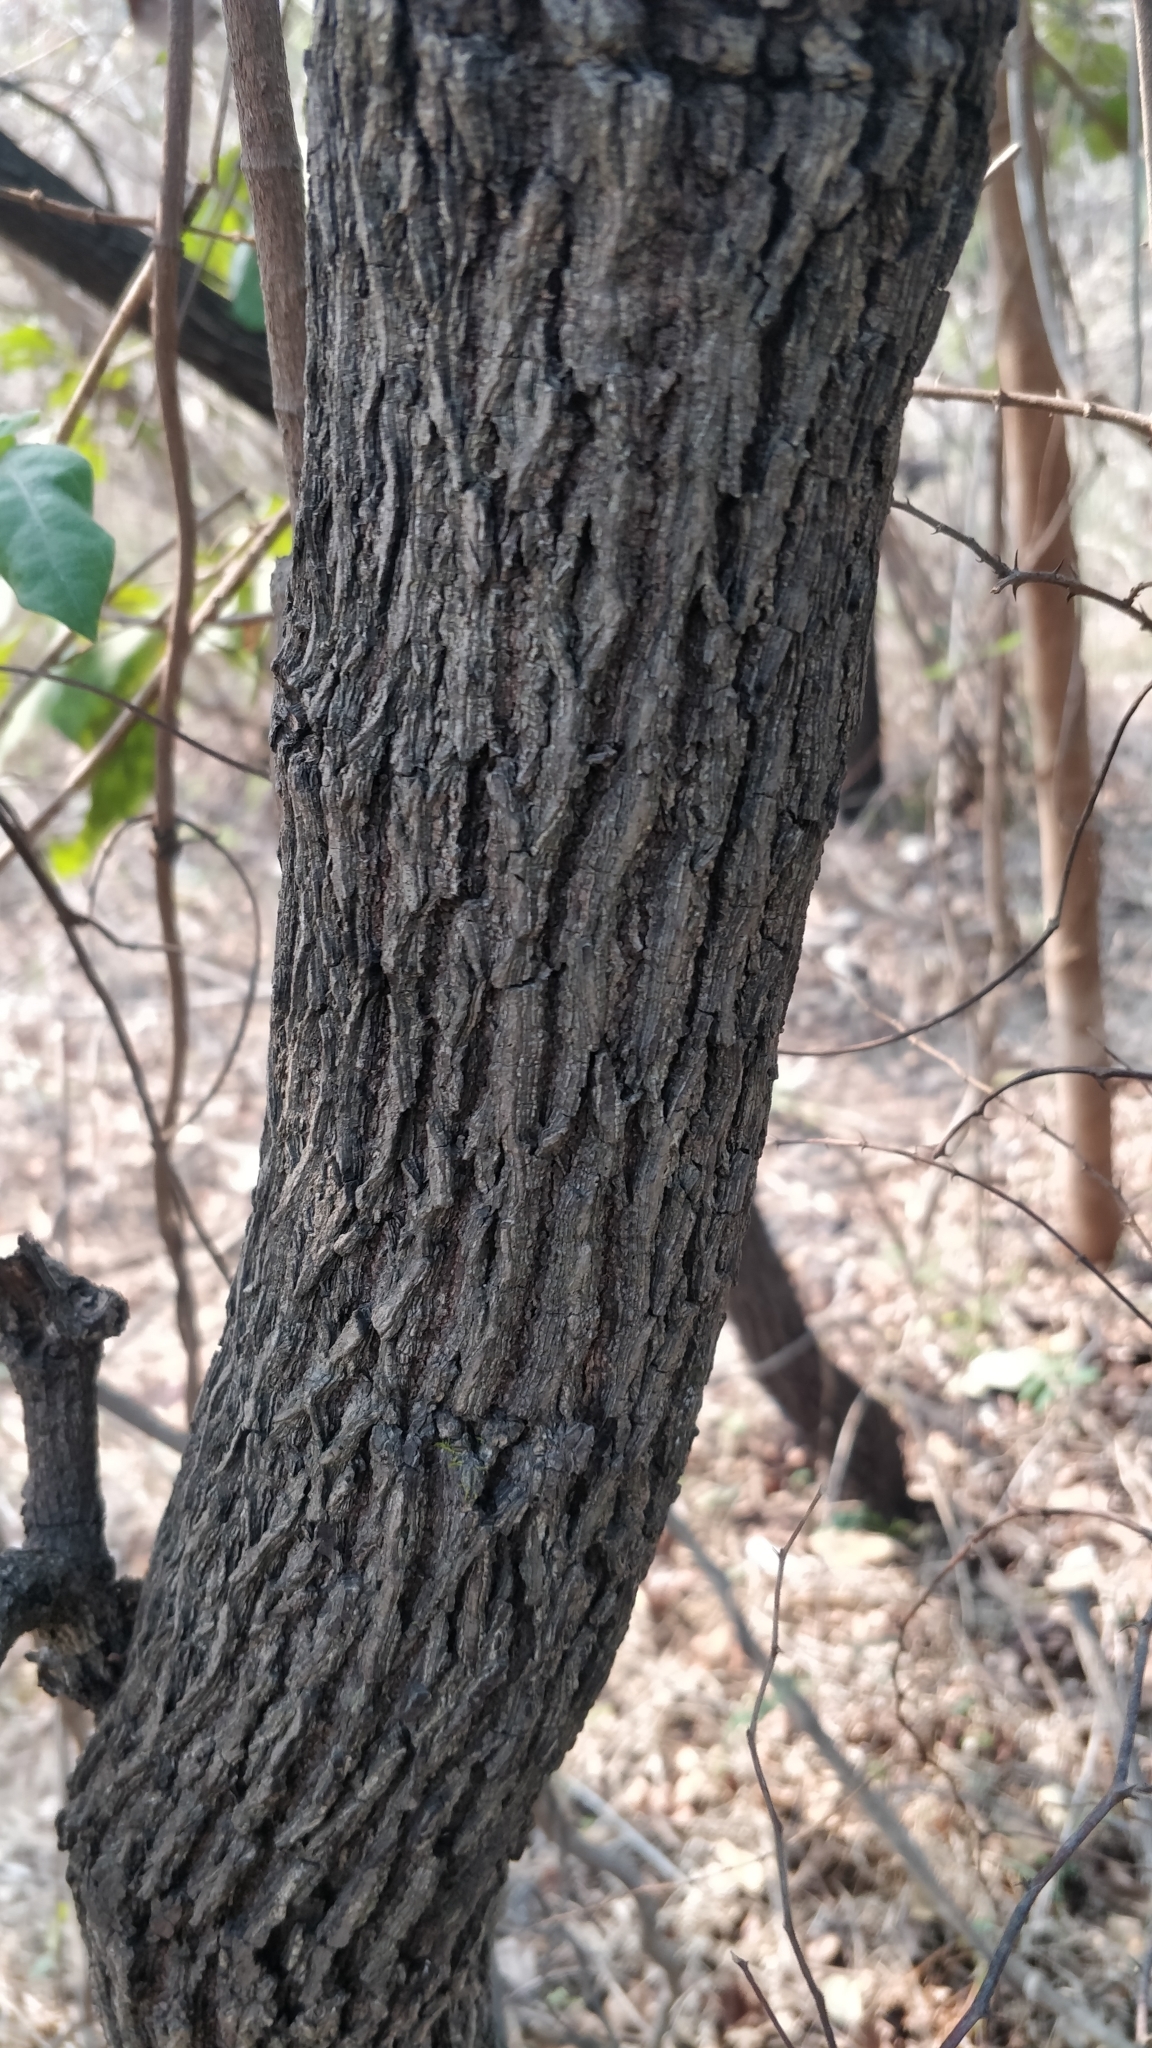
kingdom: Plantae
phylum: Tracheophyta
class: Magnoliopsida
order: Ericales
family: Ebenaceae
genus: Diospyros
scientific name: Diospyros melanoxylon
